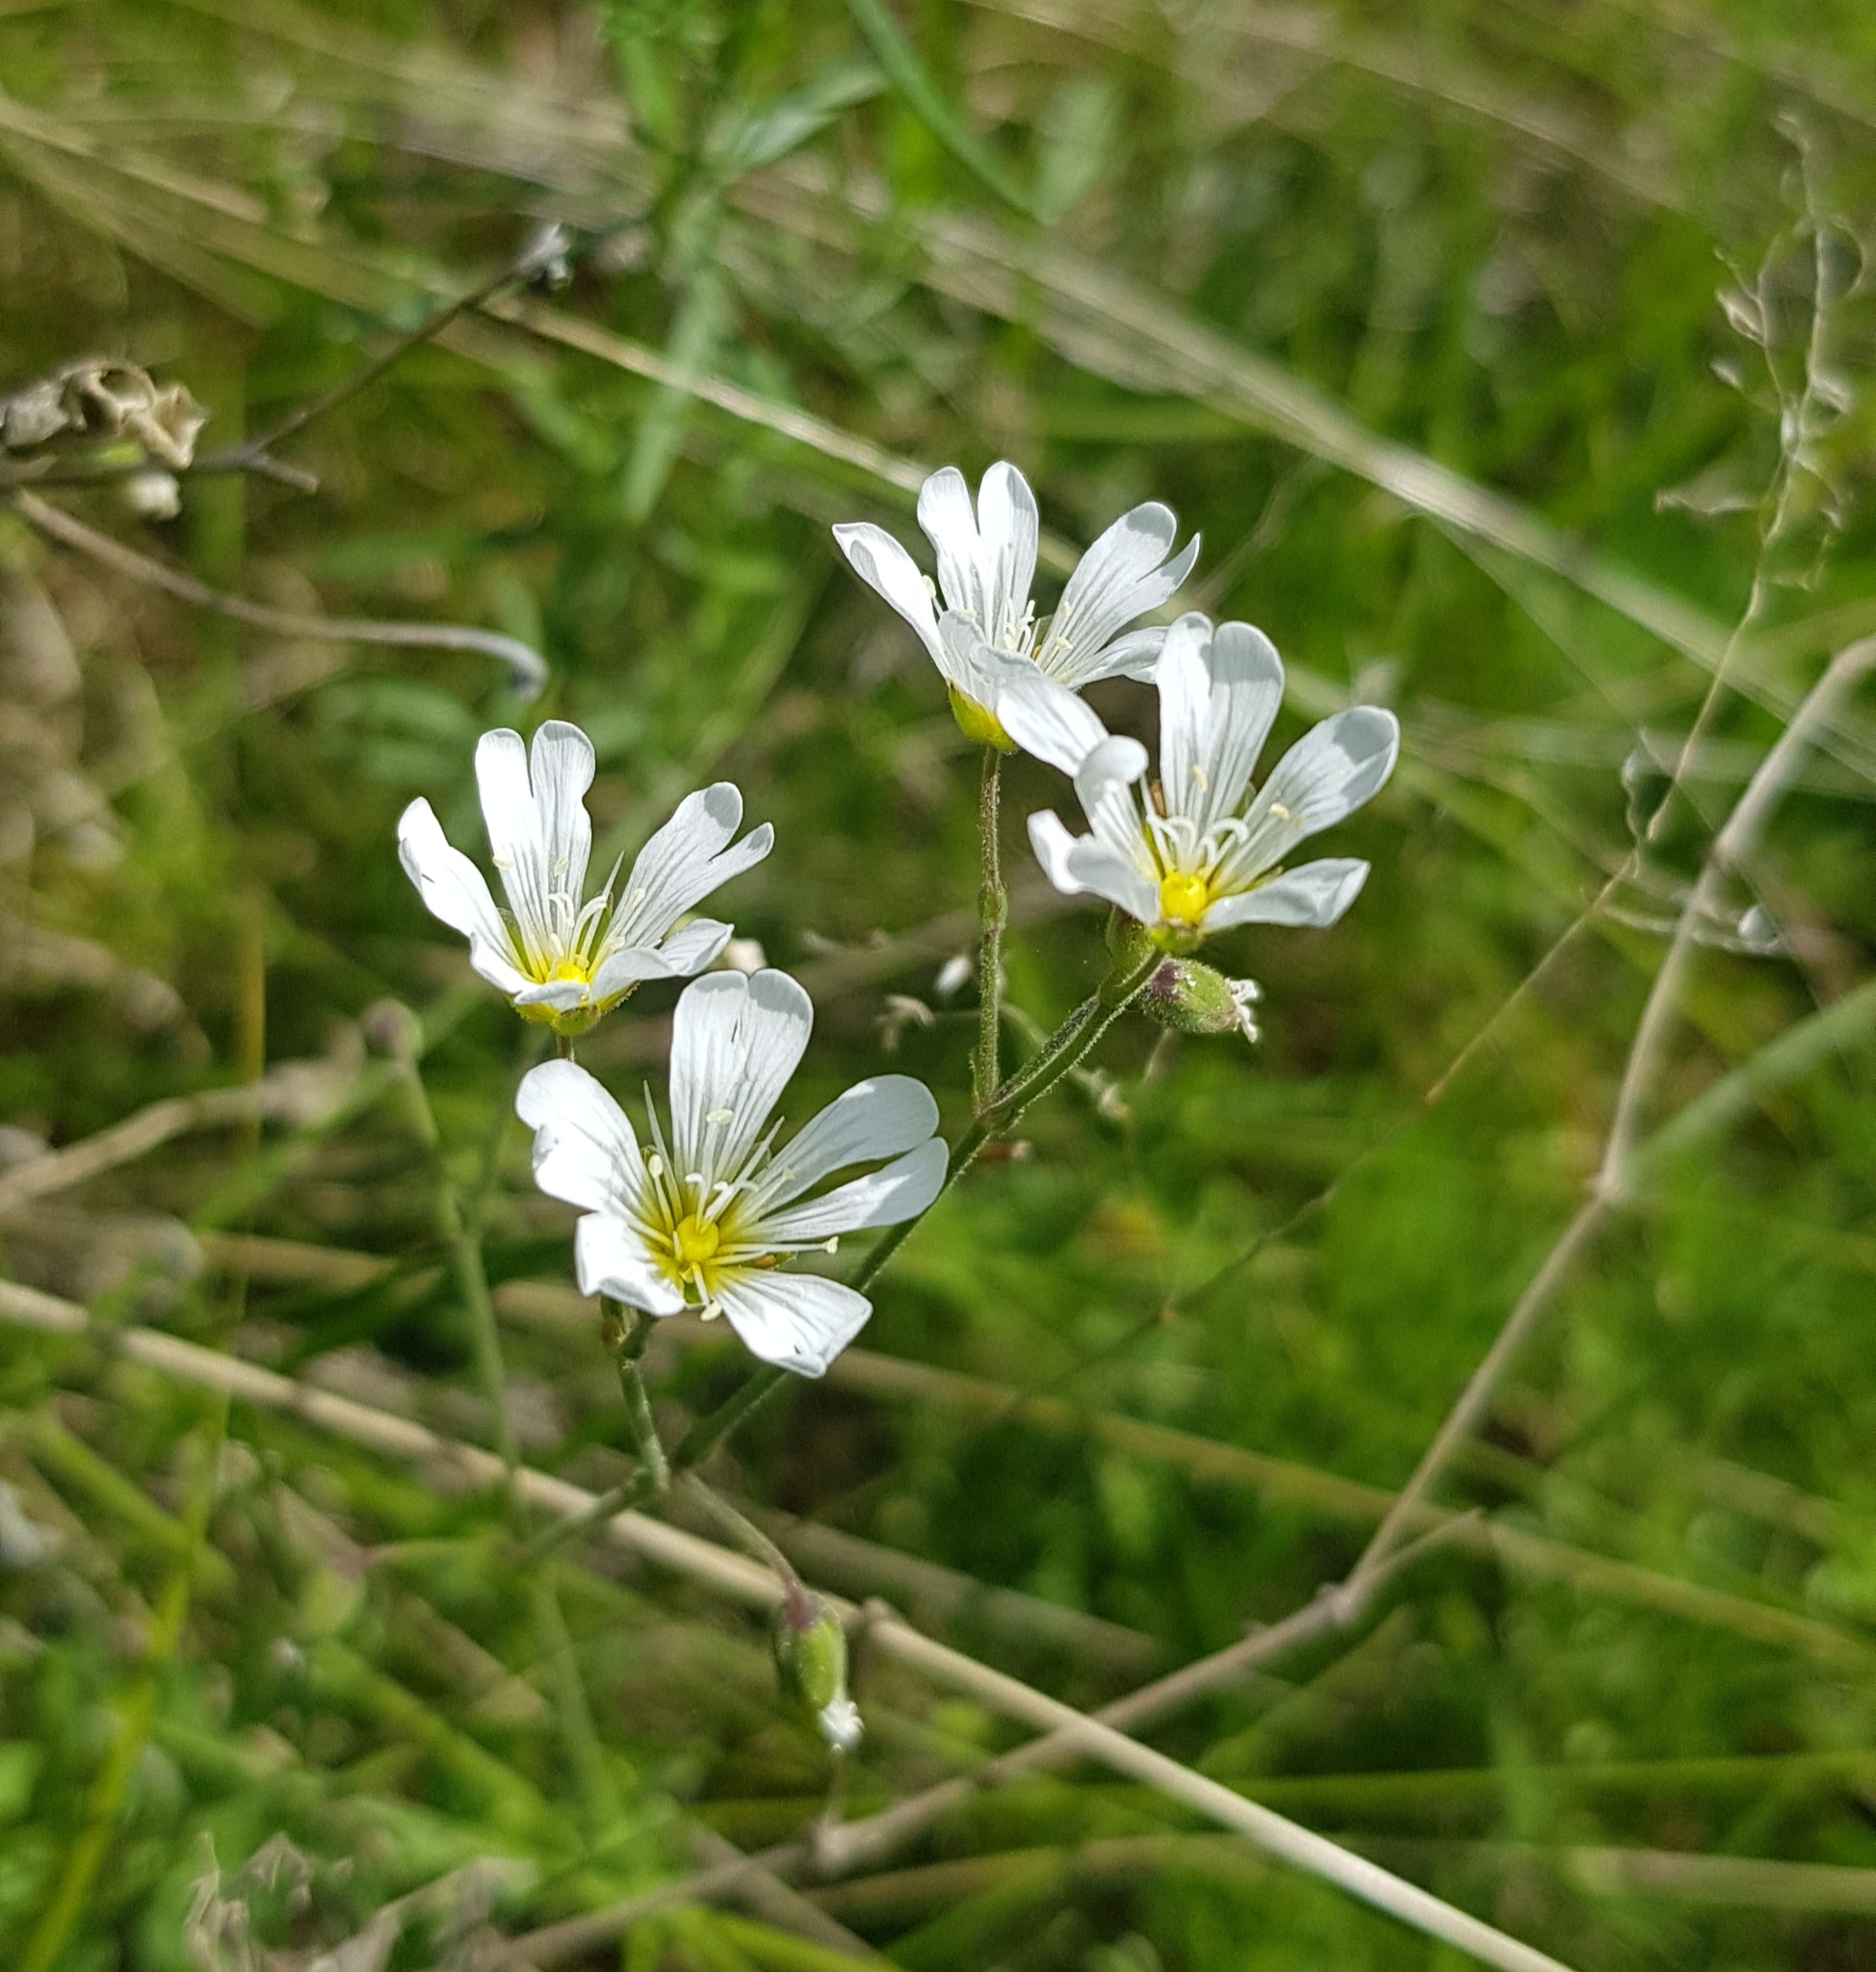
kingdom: Plantae
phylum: Tracheophyta
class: Magnoliopsida
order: Caryophyllales
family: Caryophyllaceae
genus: Cerastium
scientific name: Cerastium arvense
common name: Field mouse-ear
